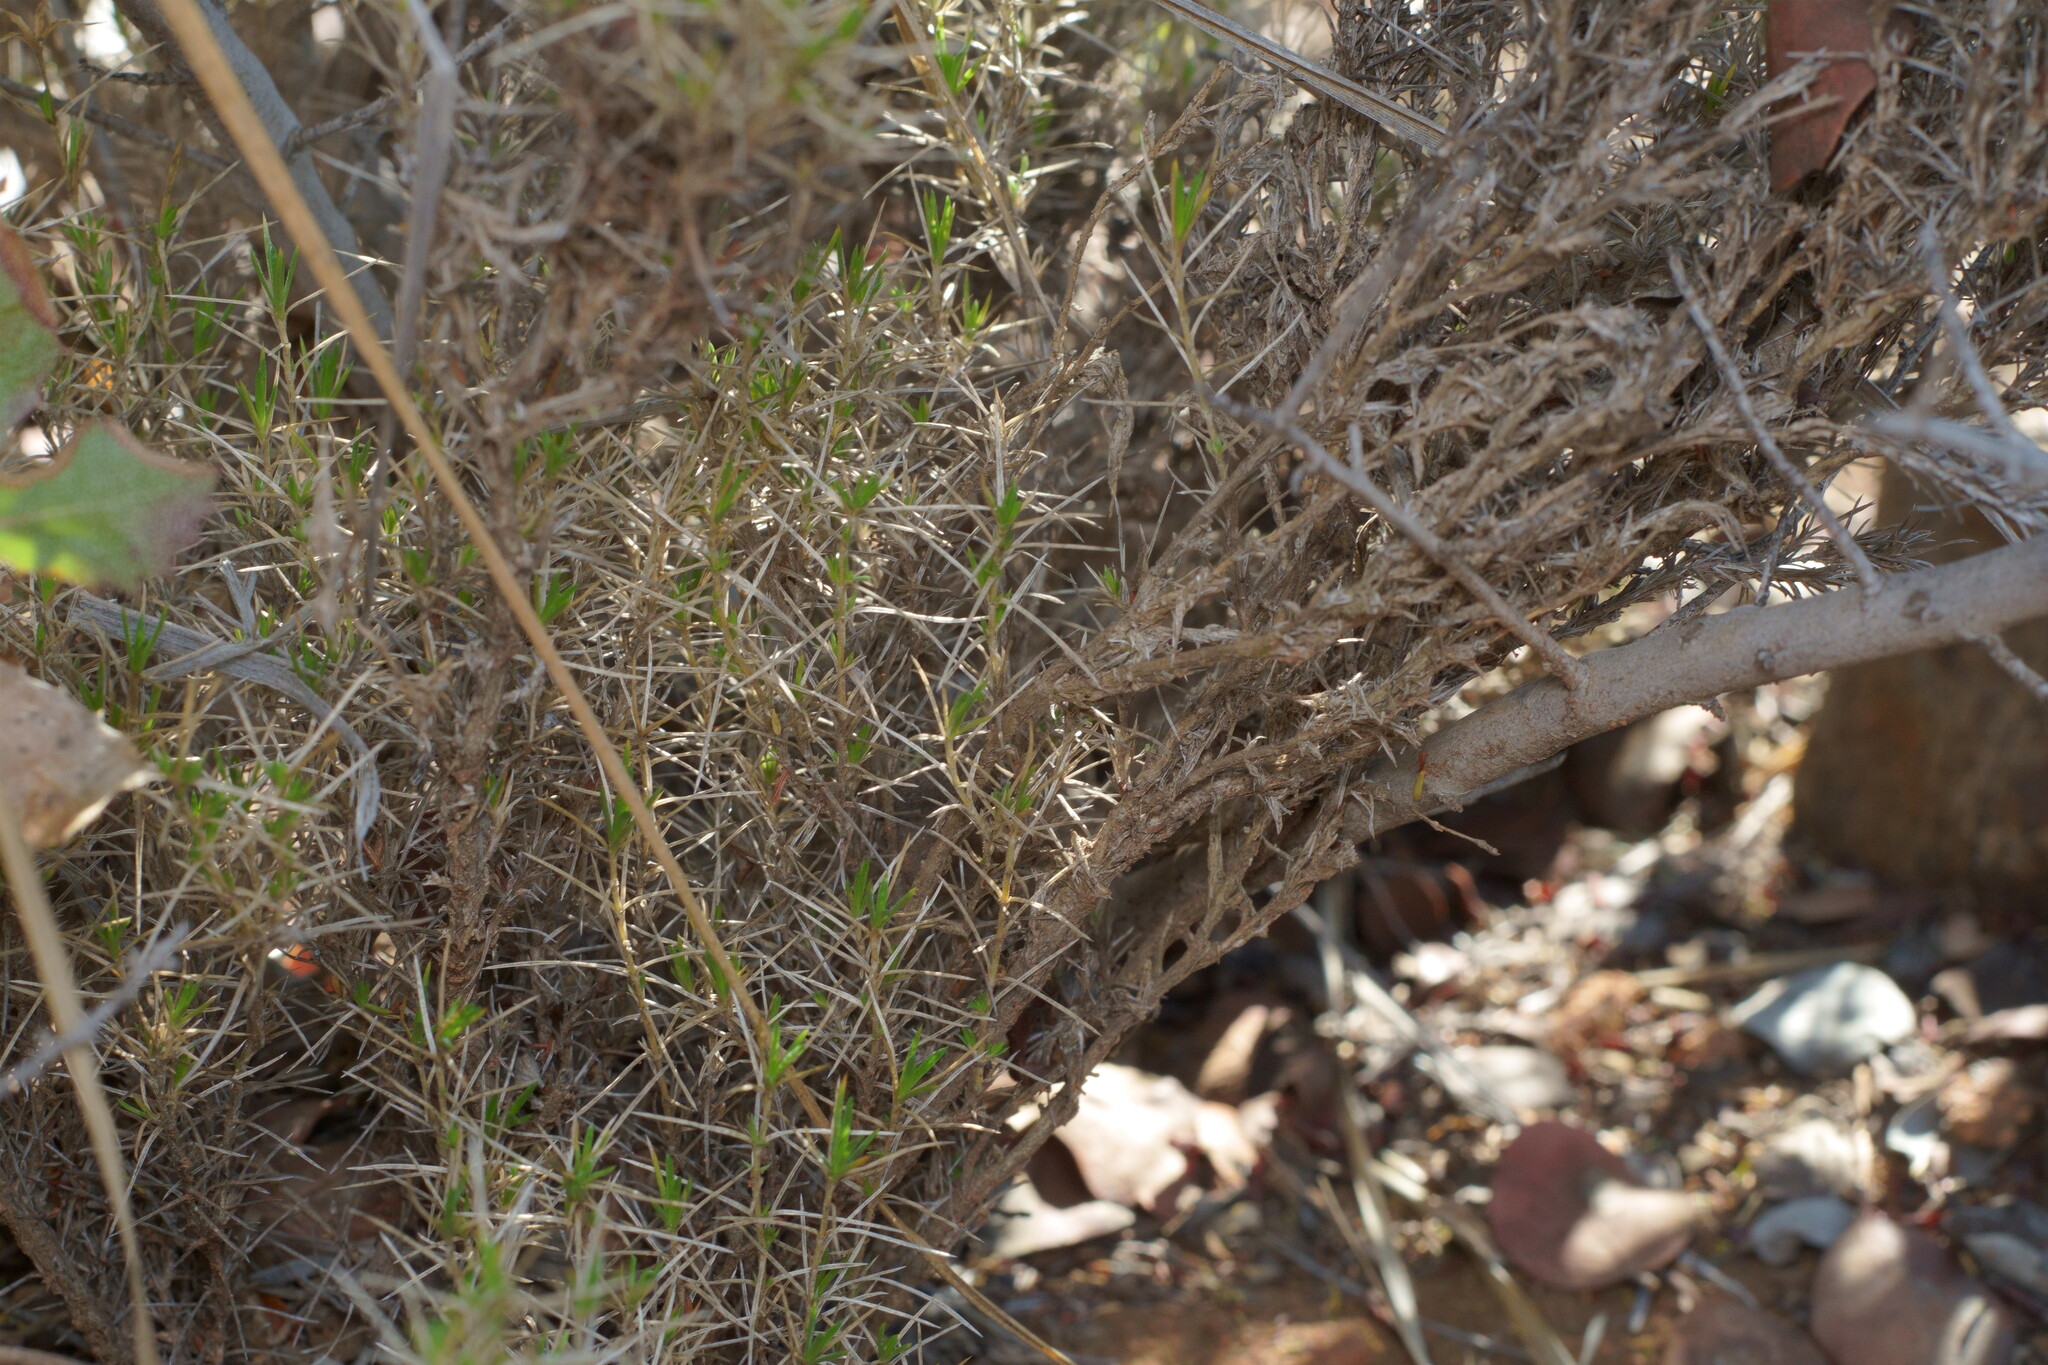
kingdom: Plantae
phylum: Tracheophyta
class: Magnoliopsida
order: Ericales
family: Polemoniaceae
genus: Leptosiphon
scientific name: Leptosiphon floribundum
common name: Many-flower linanthus
